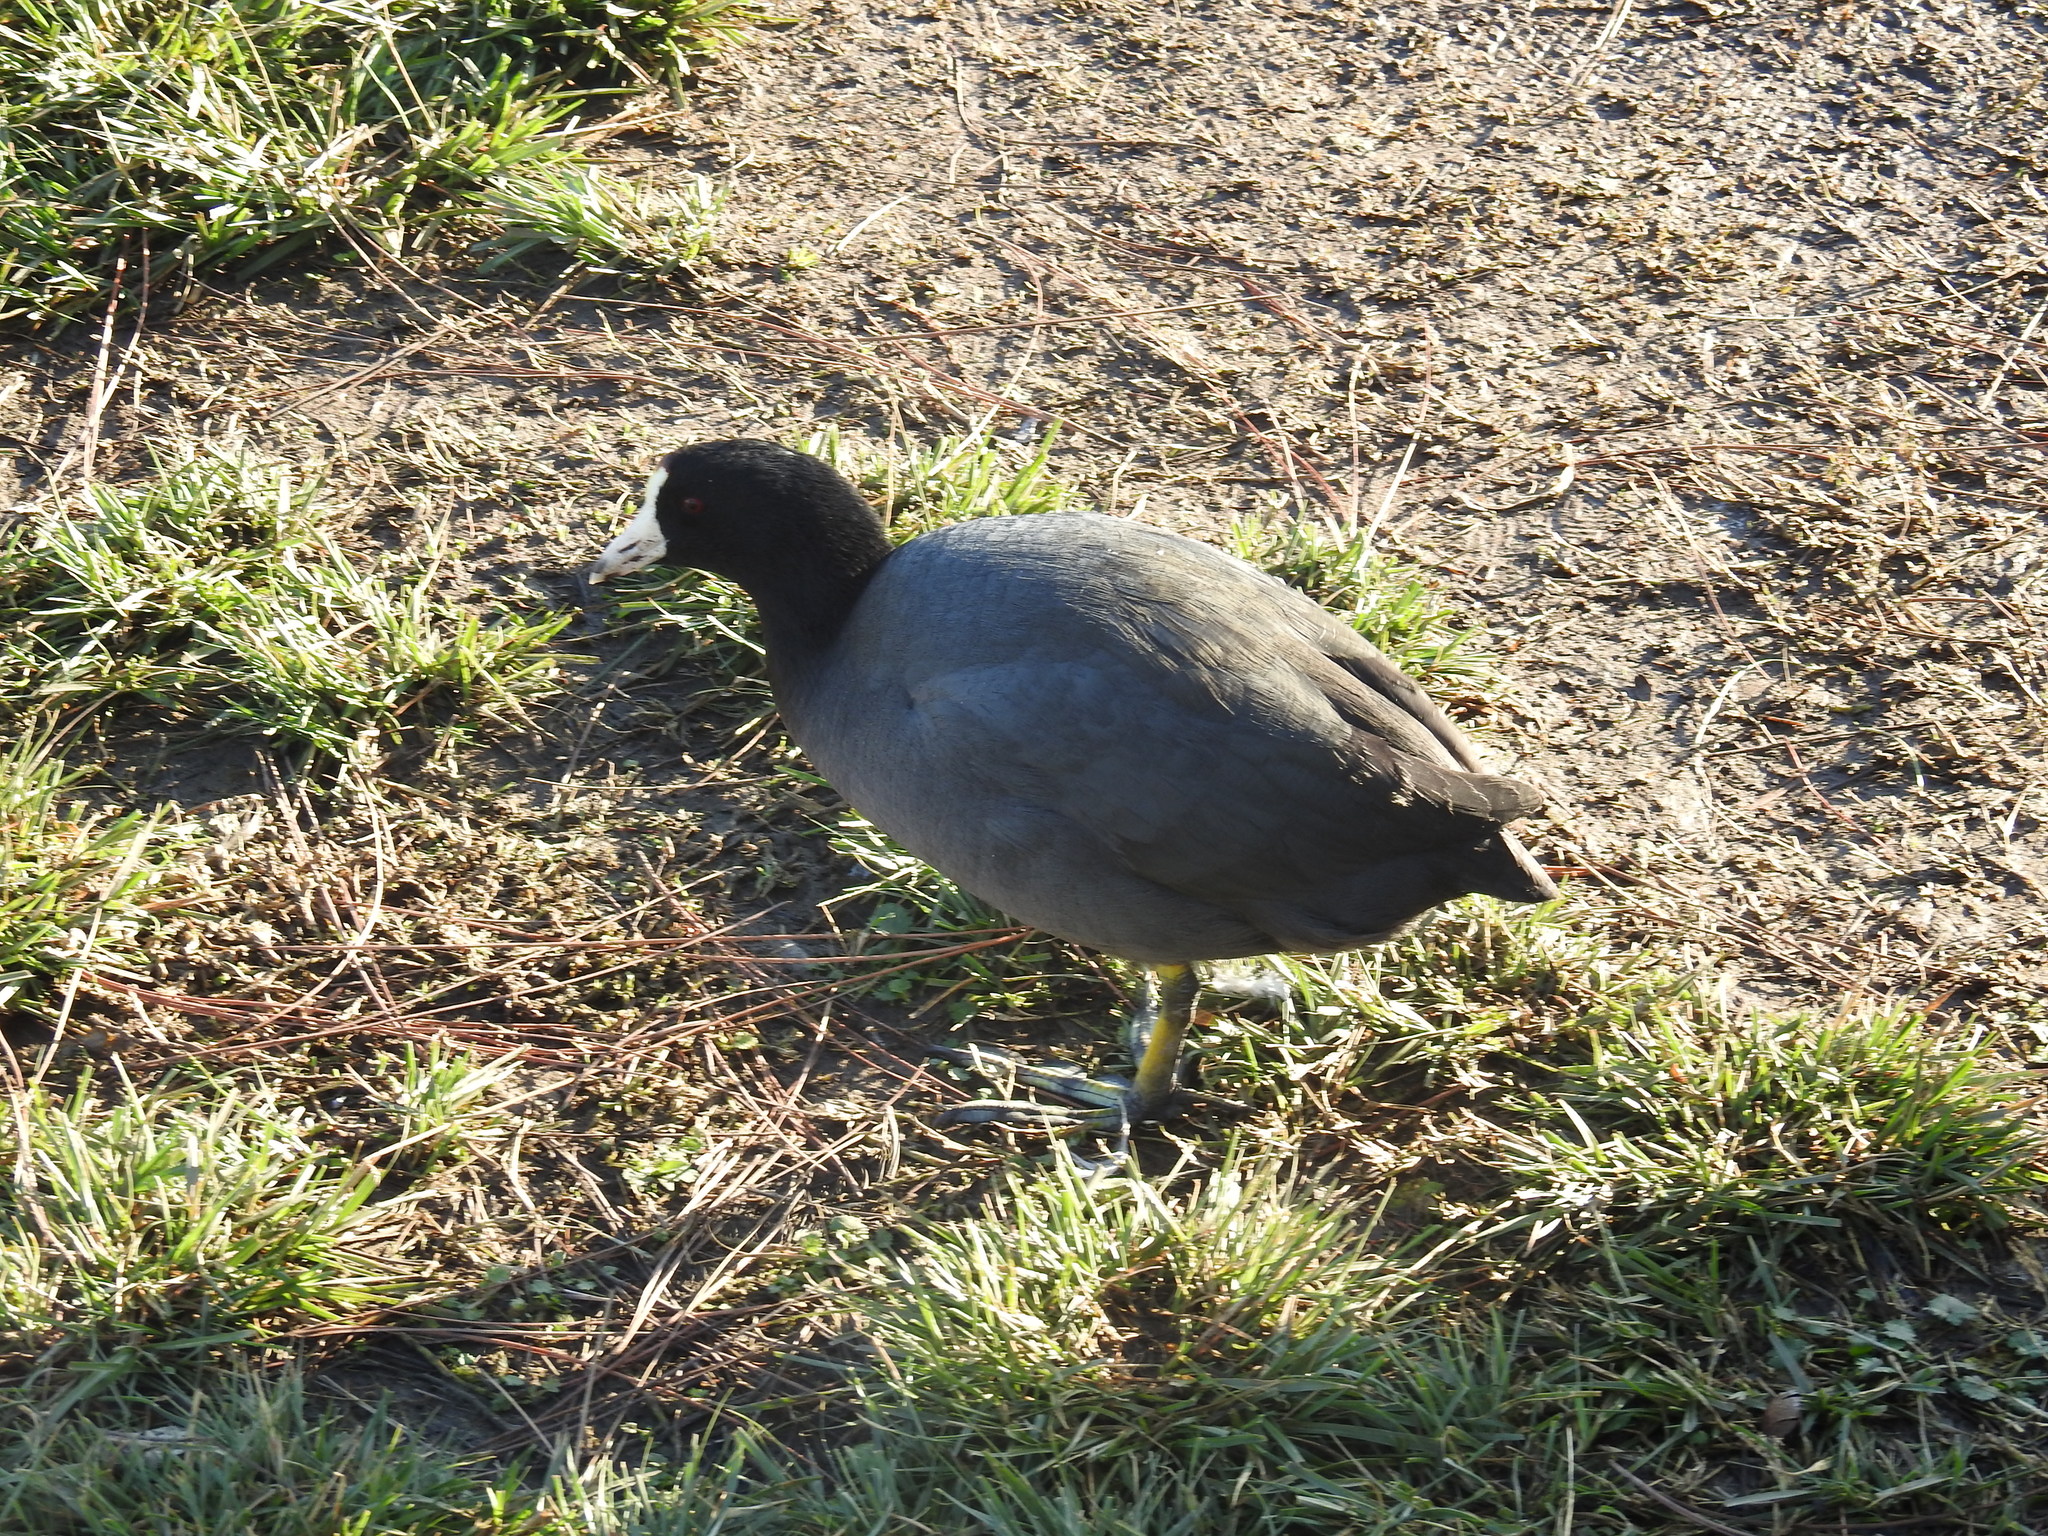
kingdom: Animalia
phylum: Chordata
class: Aves
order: Gruiformes
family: Rallidae
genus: Fulica
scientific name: Fulica americana
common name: American coot
